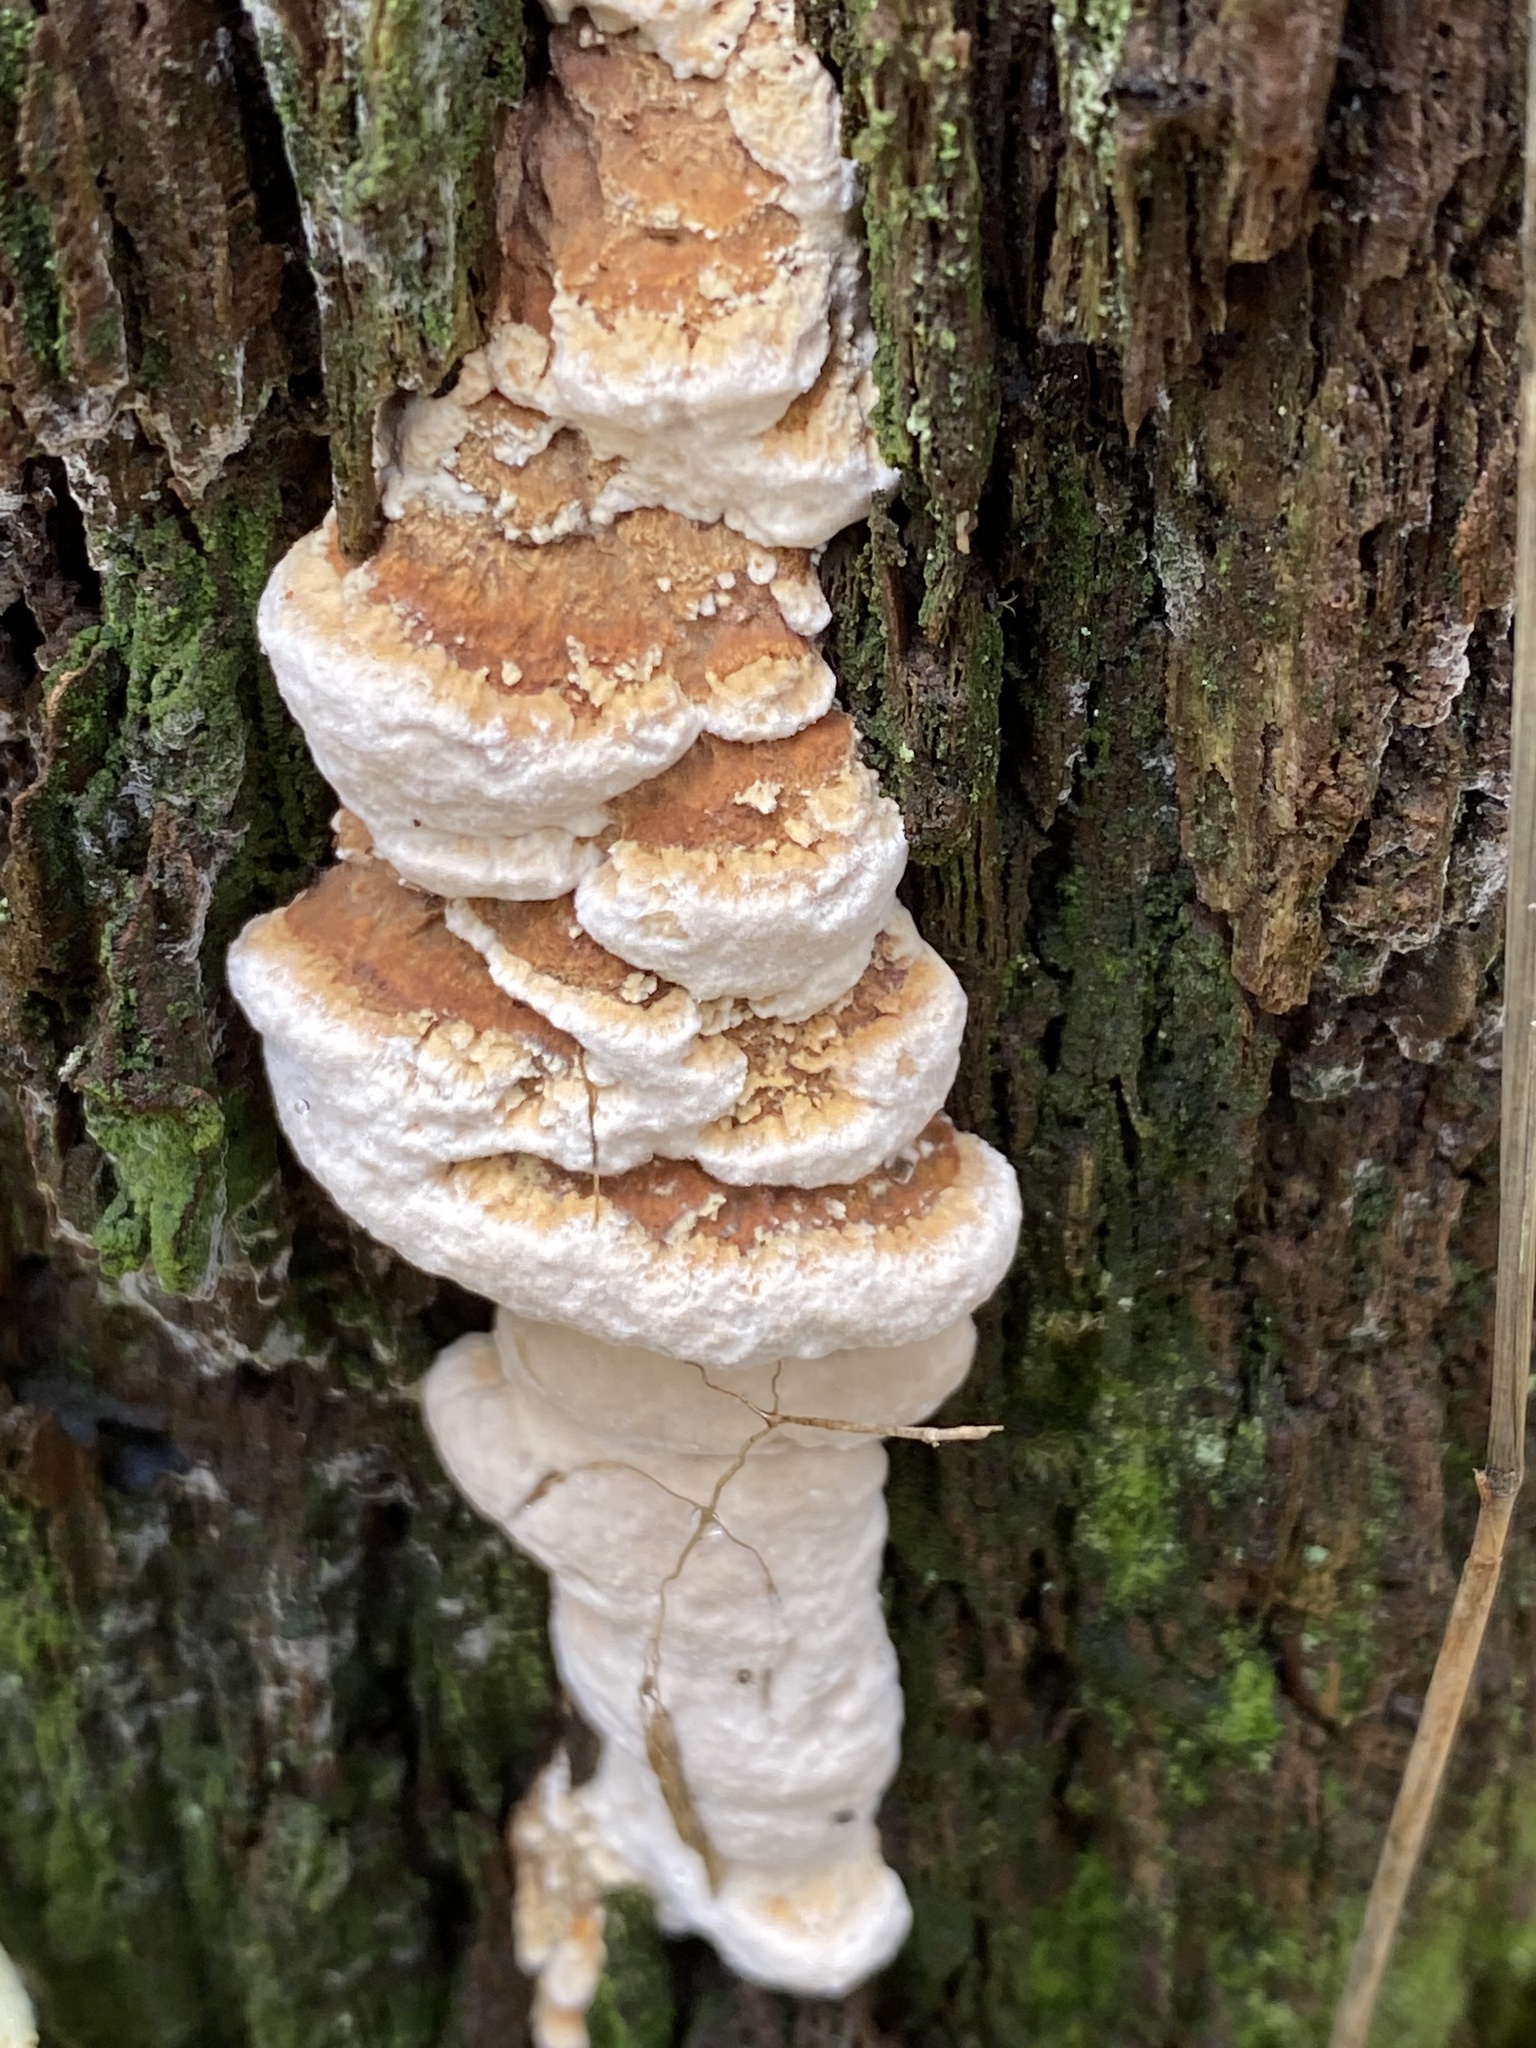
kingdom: Fungi
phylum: Basidiomycota
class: Agaricomycetes
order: Polyporales
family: Fomitopsidaceae
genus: Fomitopsis
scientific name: Fomitopsis pinicola
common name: Red-belted bracket
